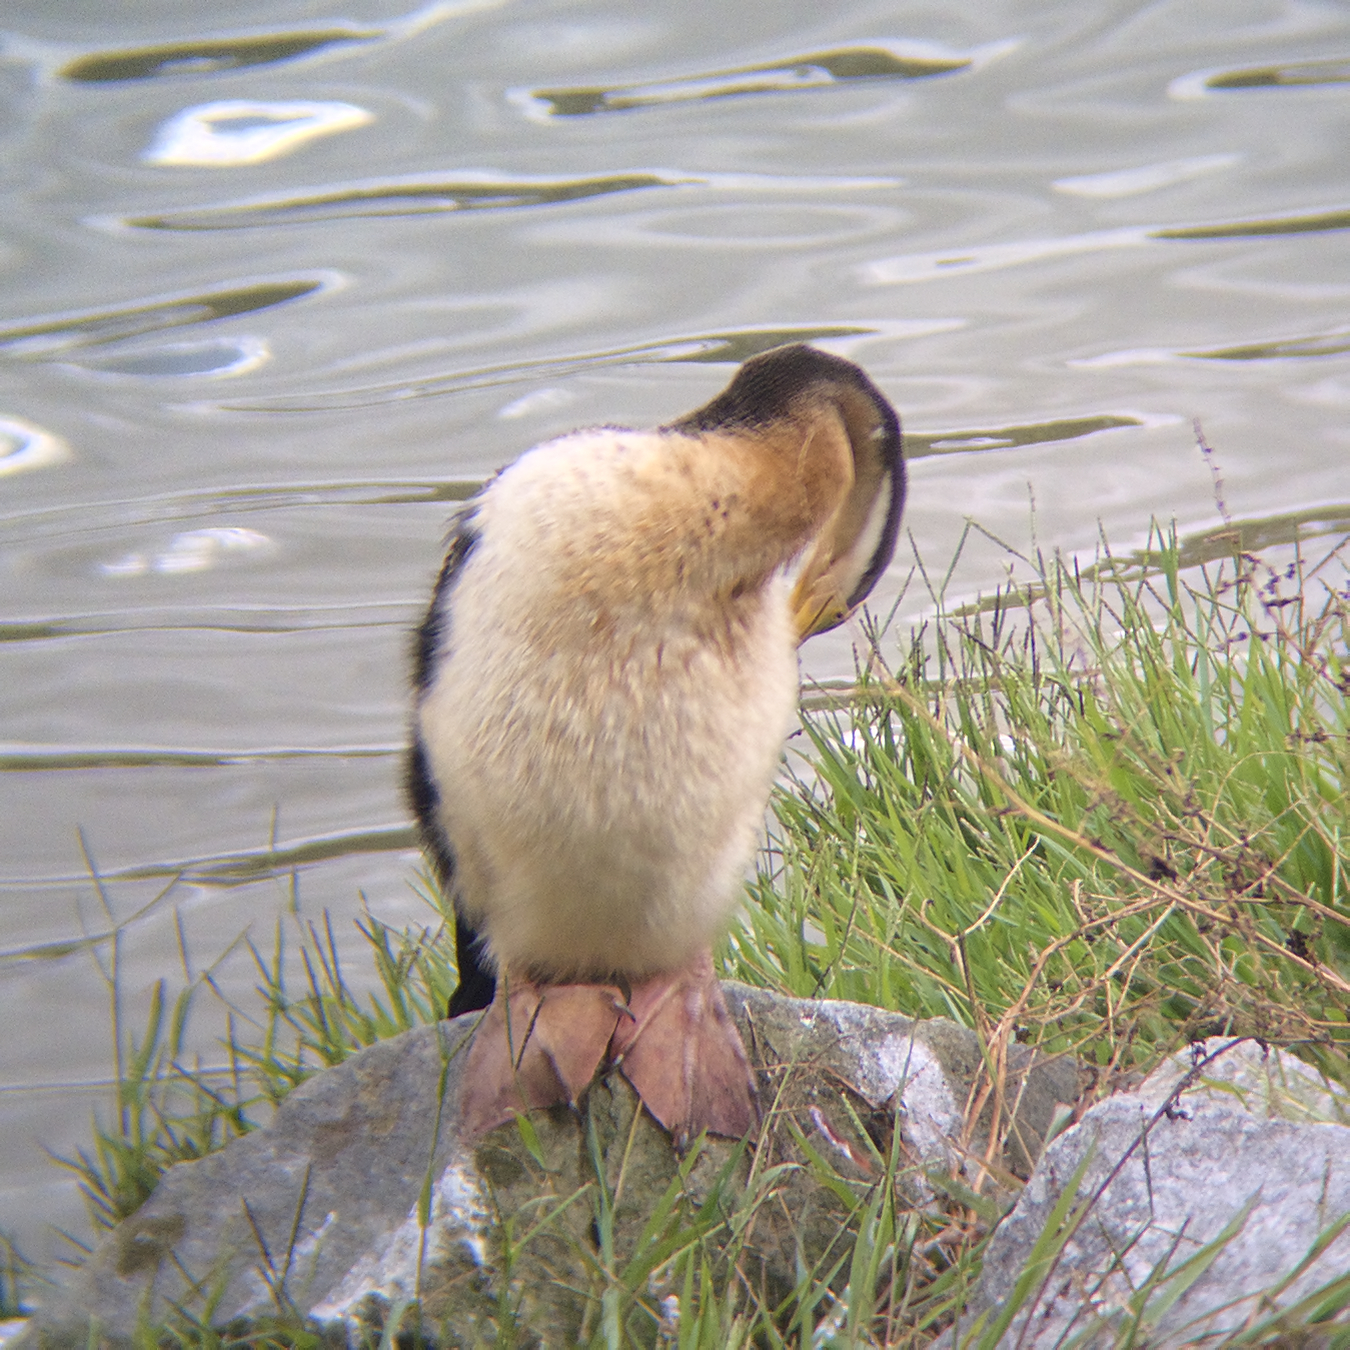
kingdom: Animalia
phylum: Chordata
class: Aves
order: Suliformes
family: Anhingidae
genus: Anhinga
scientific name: Anhinga novaehollandiae
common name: Australasian darter
